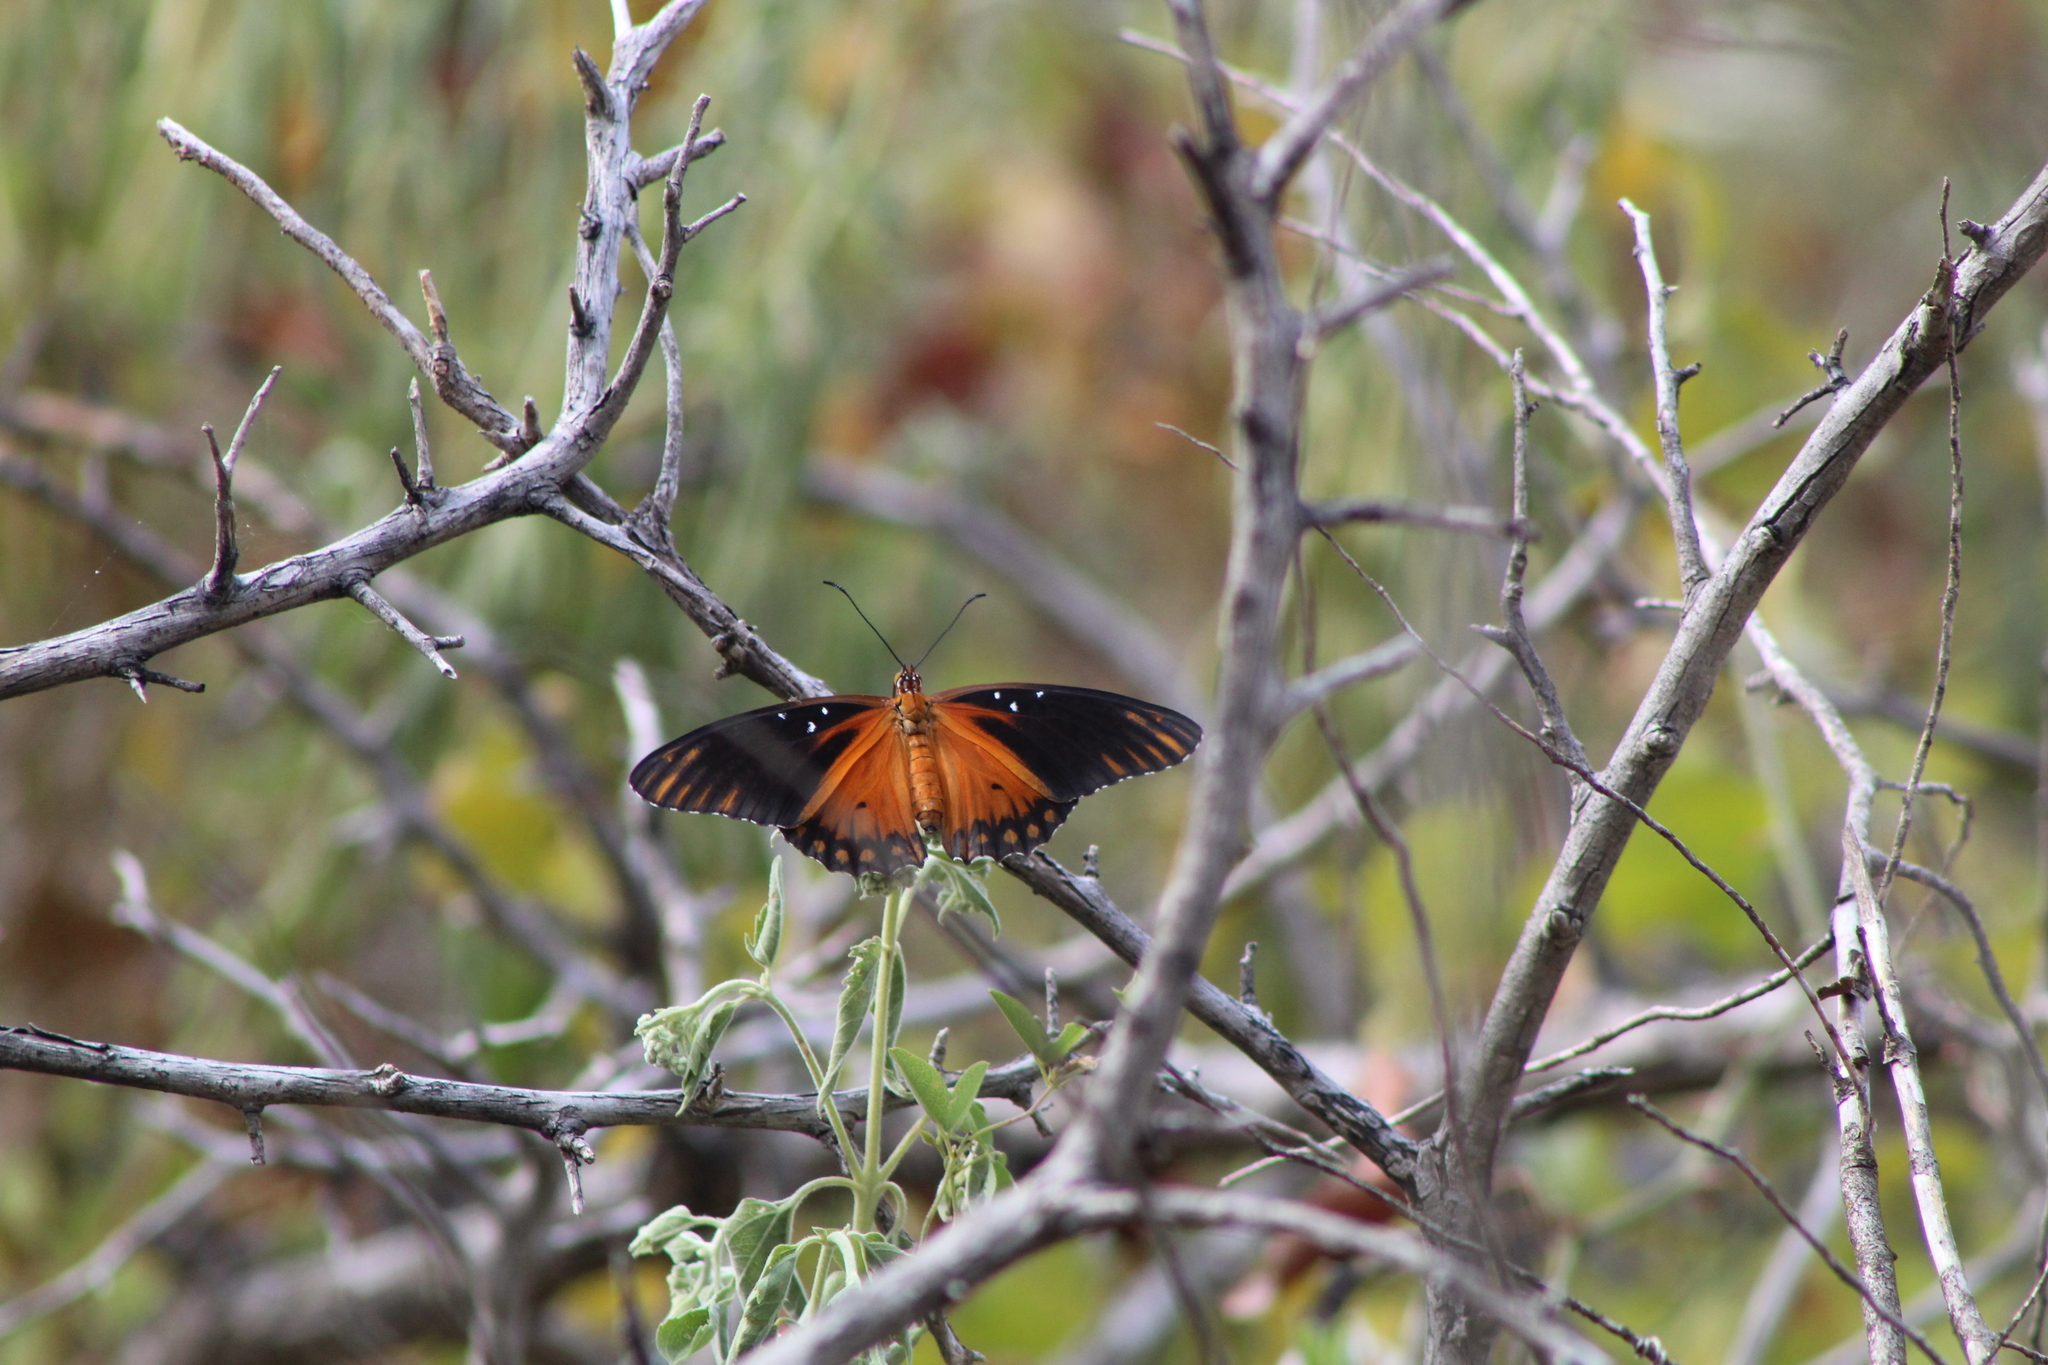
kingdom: Animalia
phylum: Arthropoda
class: Insecta
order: Lepidoptera
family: Nymphalidae
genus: Dione
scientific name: Dione vanillae
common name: Gulf fritillary
